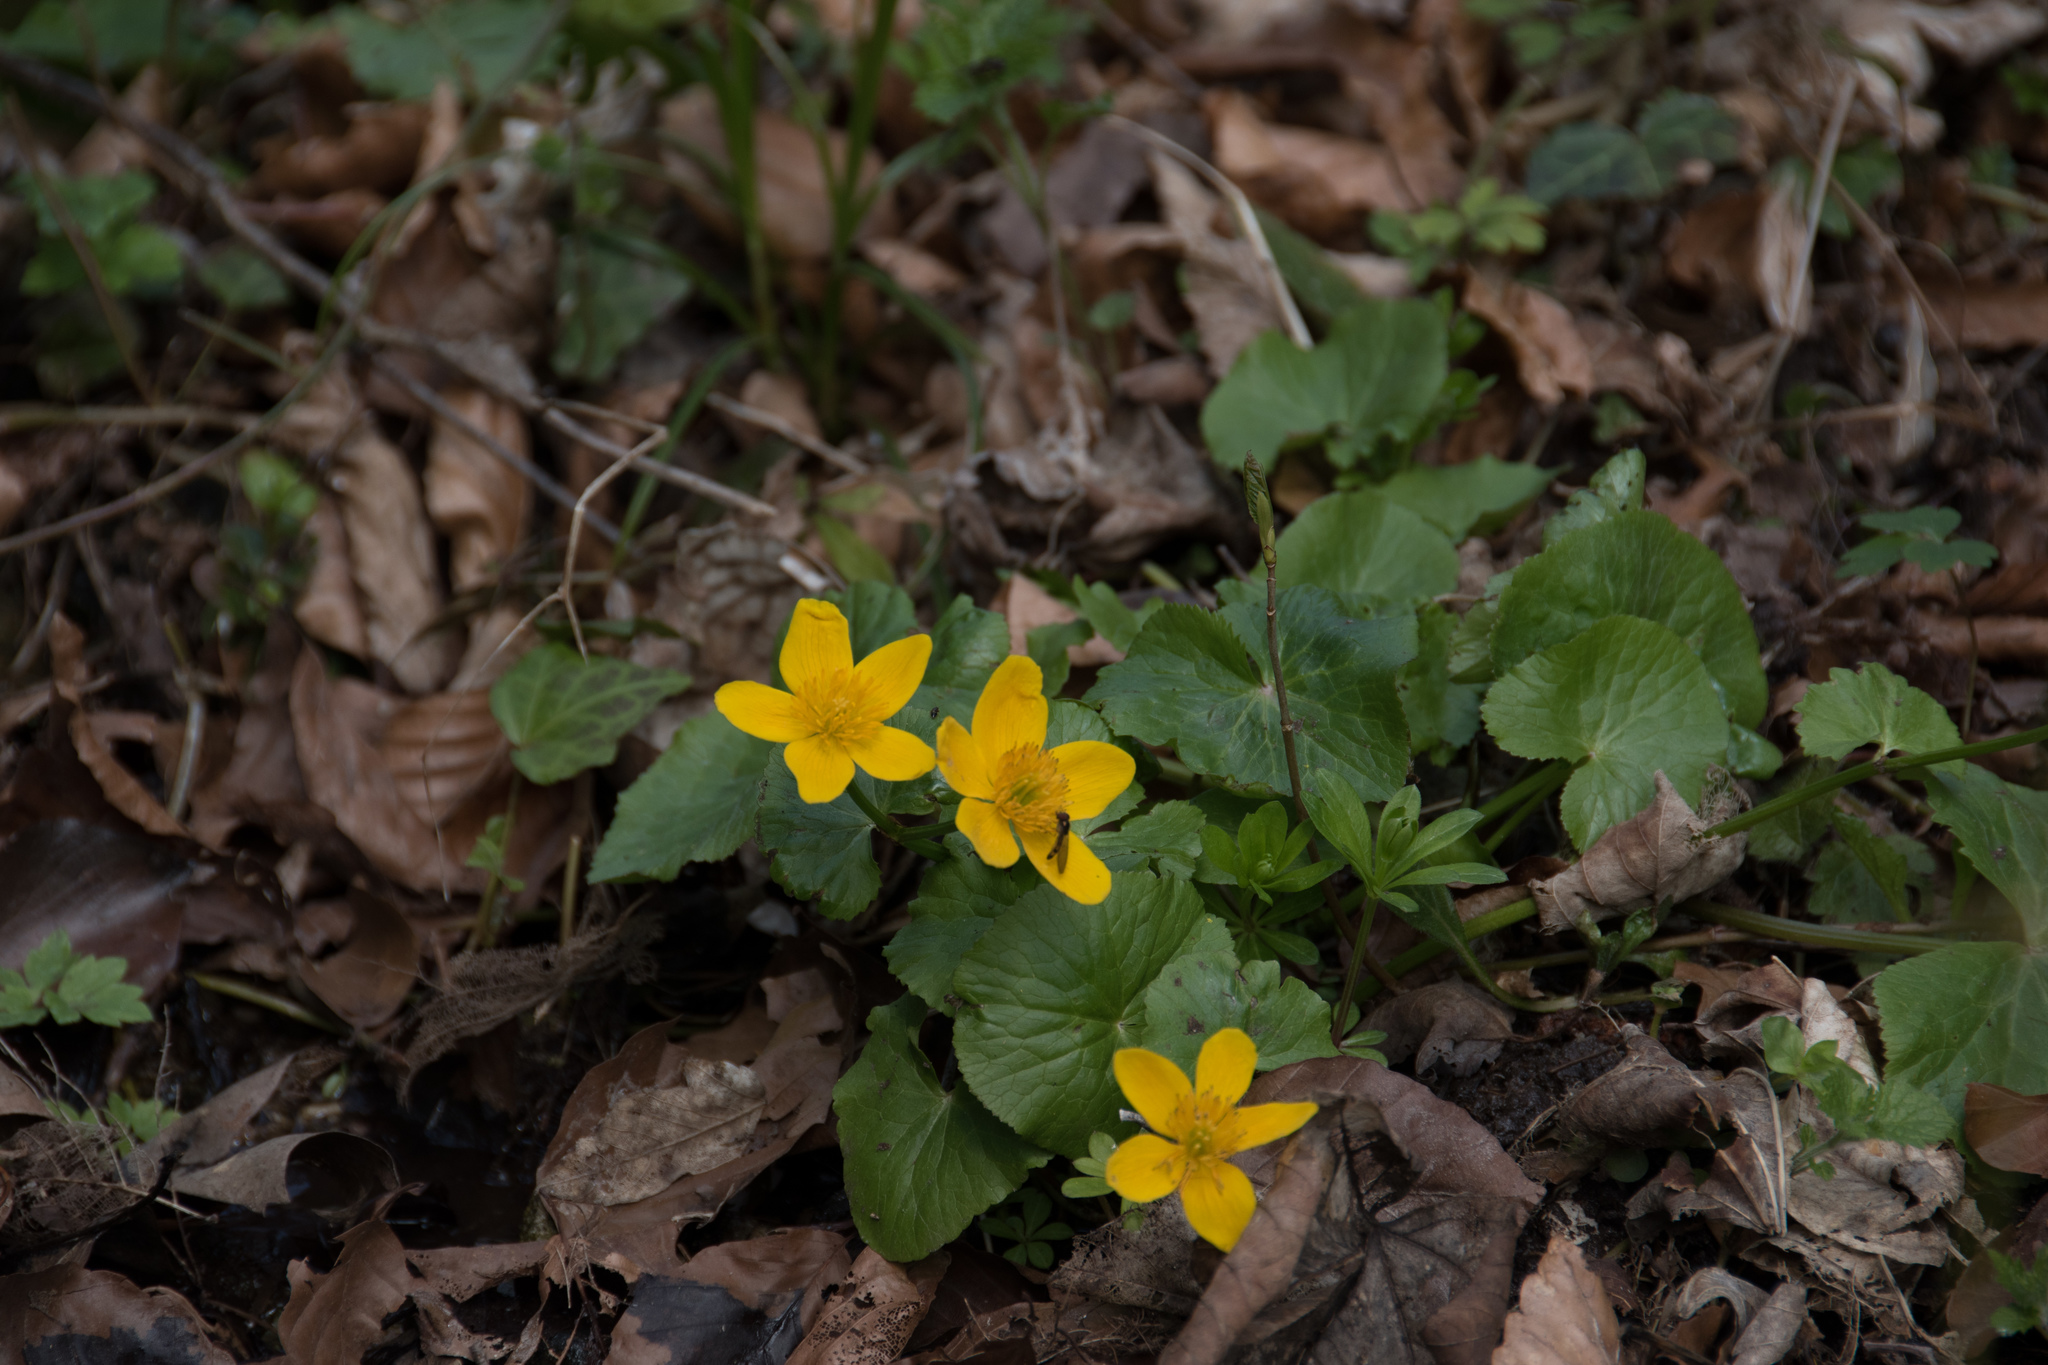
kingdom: Plantae
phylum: Tracheophyta
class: Magnoliopsida
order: Ranunculales
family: Ranunculaceae
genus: Caltha
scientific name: Caltha palustris
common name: Marsh marigold
